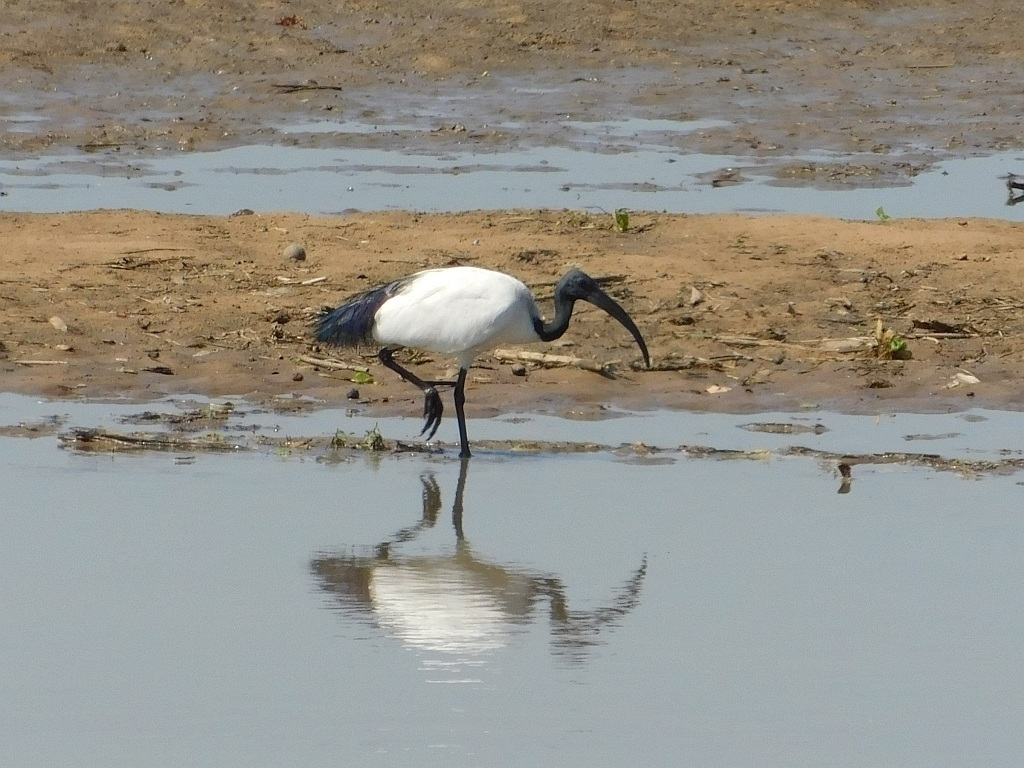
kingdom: Animalia
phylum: Chordata
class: Aves
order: Pelecaniformes
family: Threskiornithidae
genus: Threskiornis
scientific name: Threskiornis aethiopicus
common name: Sacred ibis
